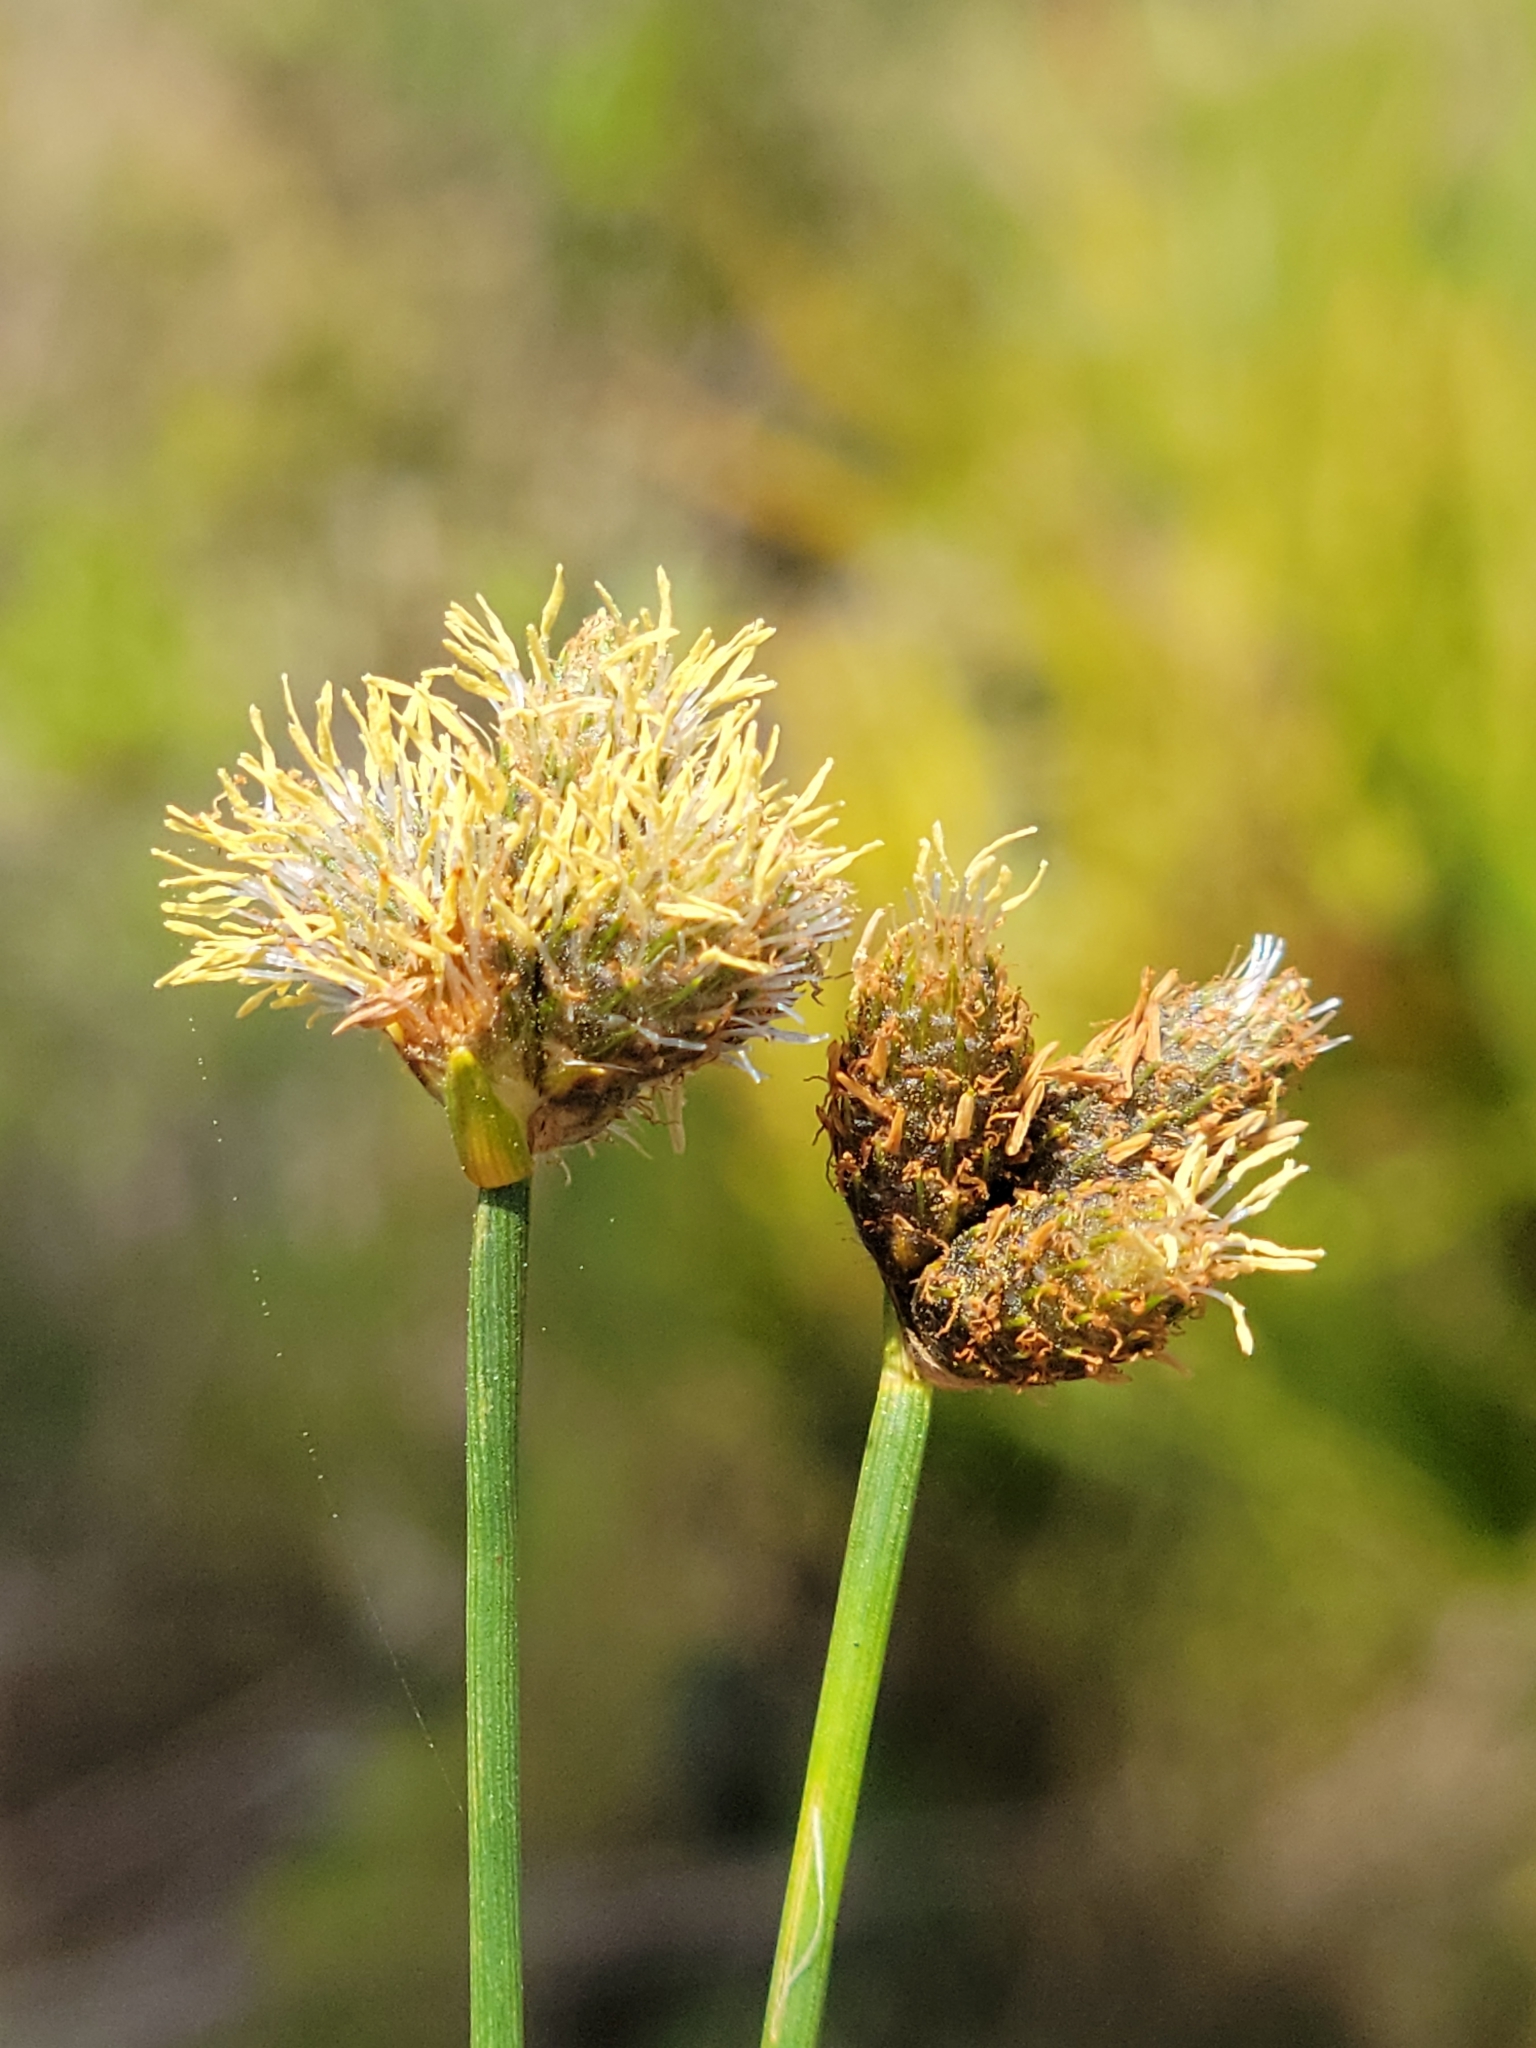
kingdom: Plantae
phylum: Tracheophyta
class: Liliopsida
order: Poales
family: Cyperaceae
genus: Fuirena
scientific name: Fuirena scirpoidea
